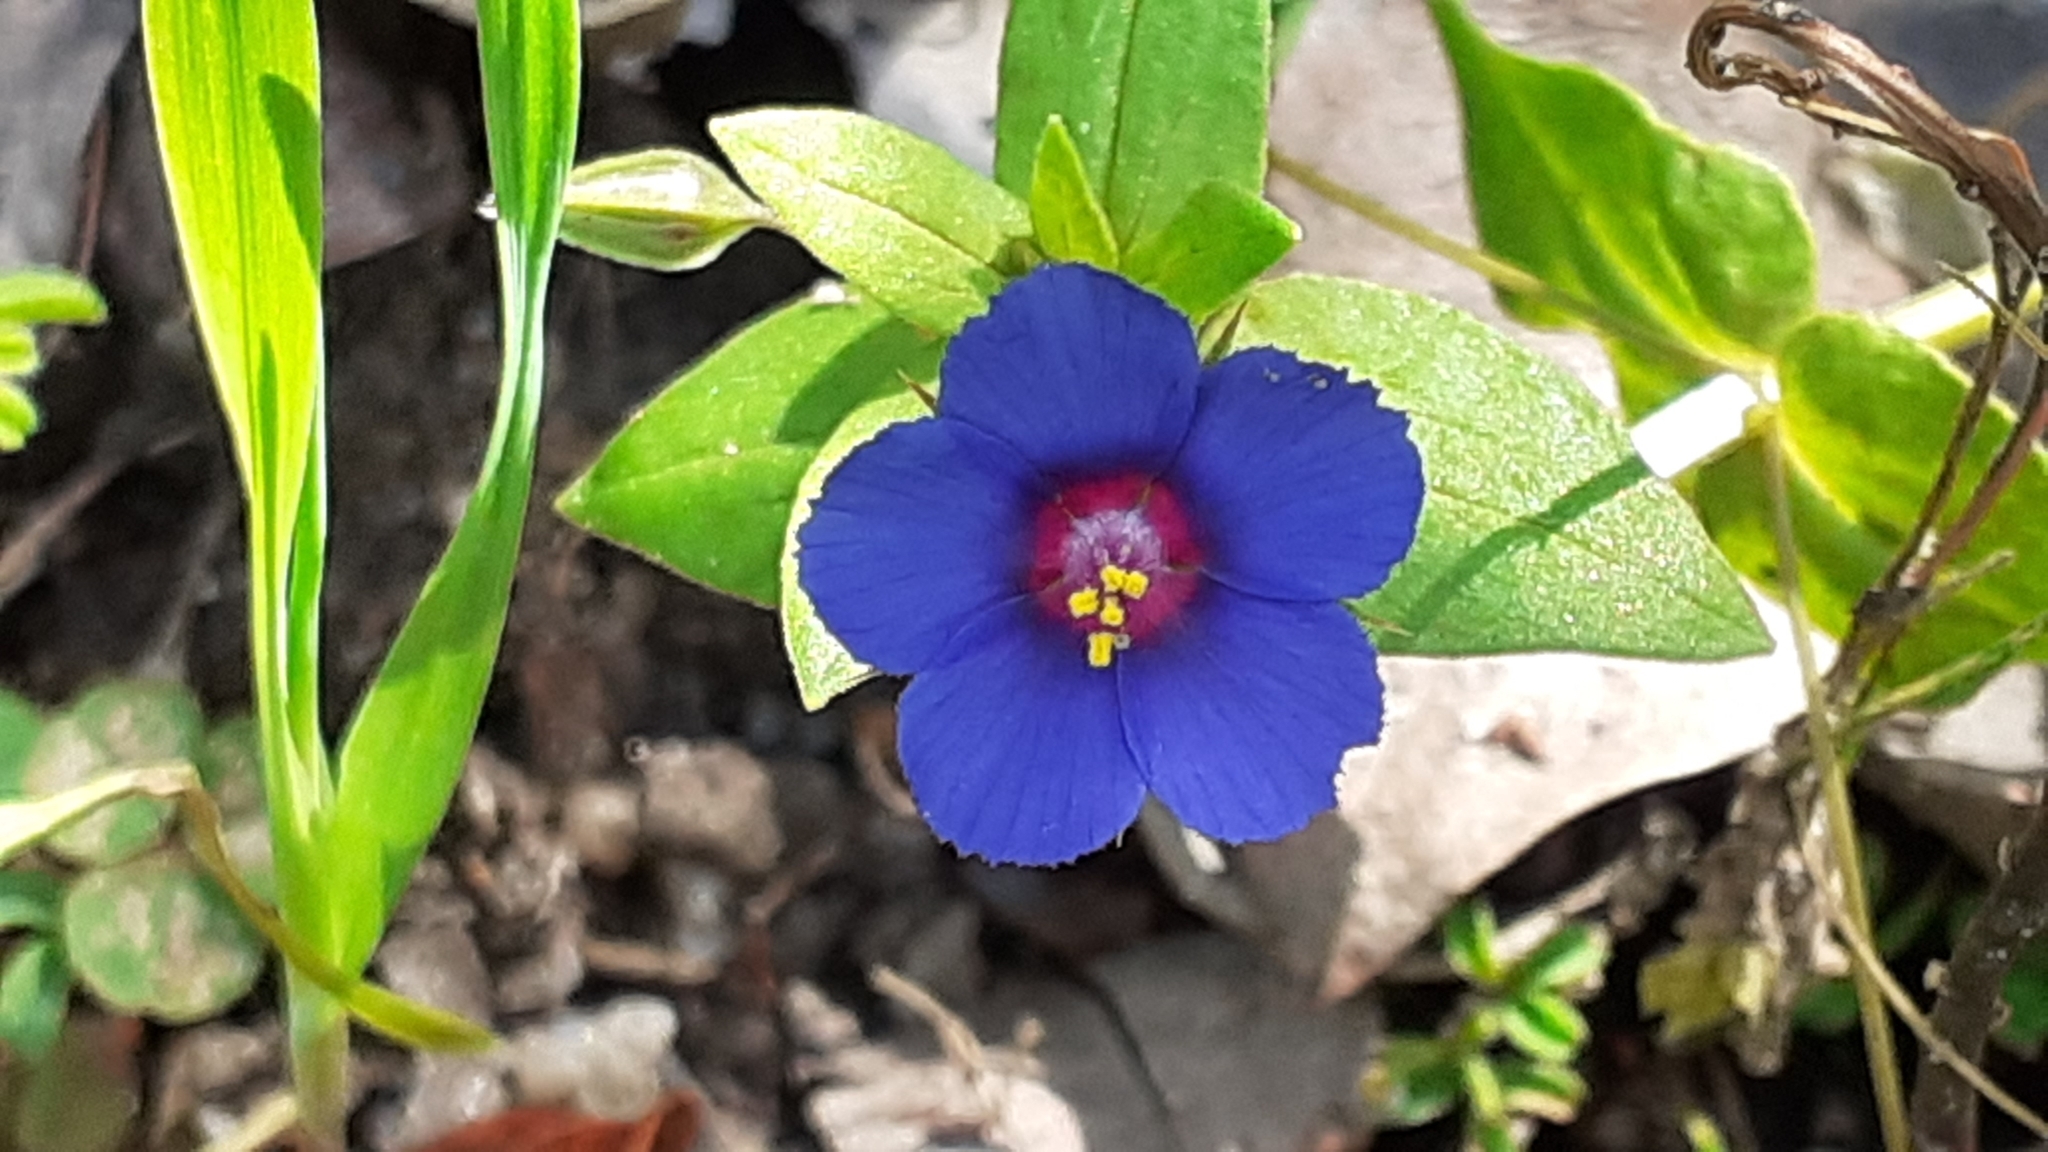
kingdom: Plantae
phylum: Tracheophyta
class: Magnoliopsida
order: Ericales
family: Primulaceae
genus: Lysimachia
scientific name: Lysimachia loeflingii
